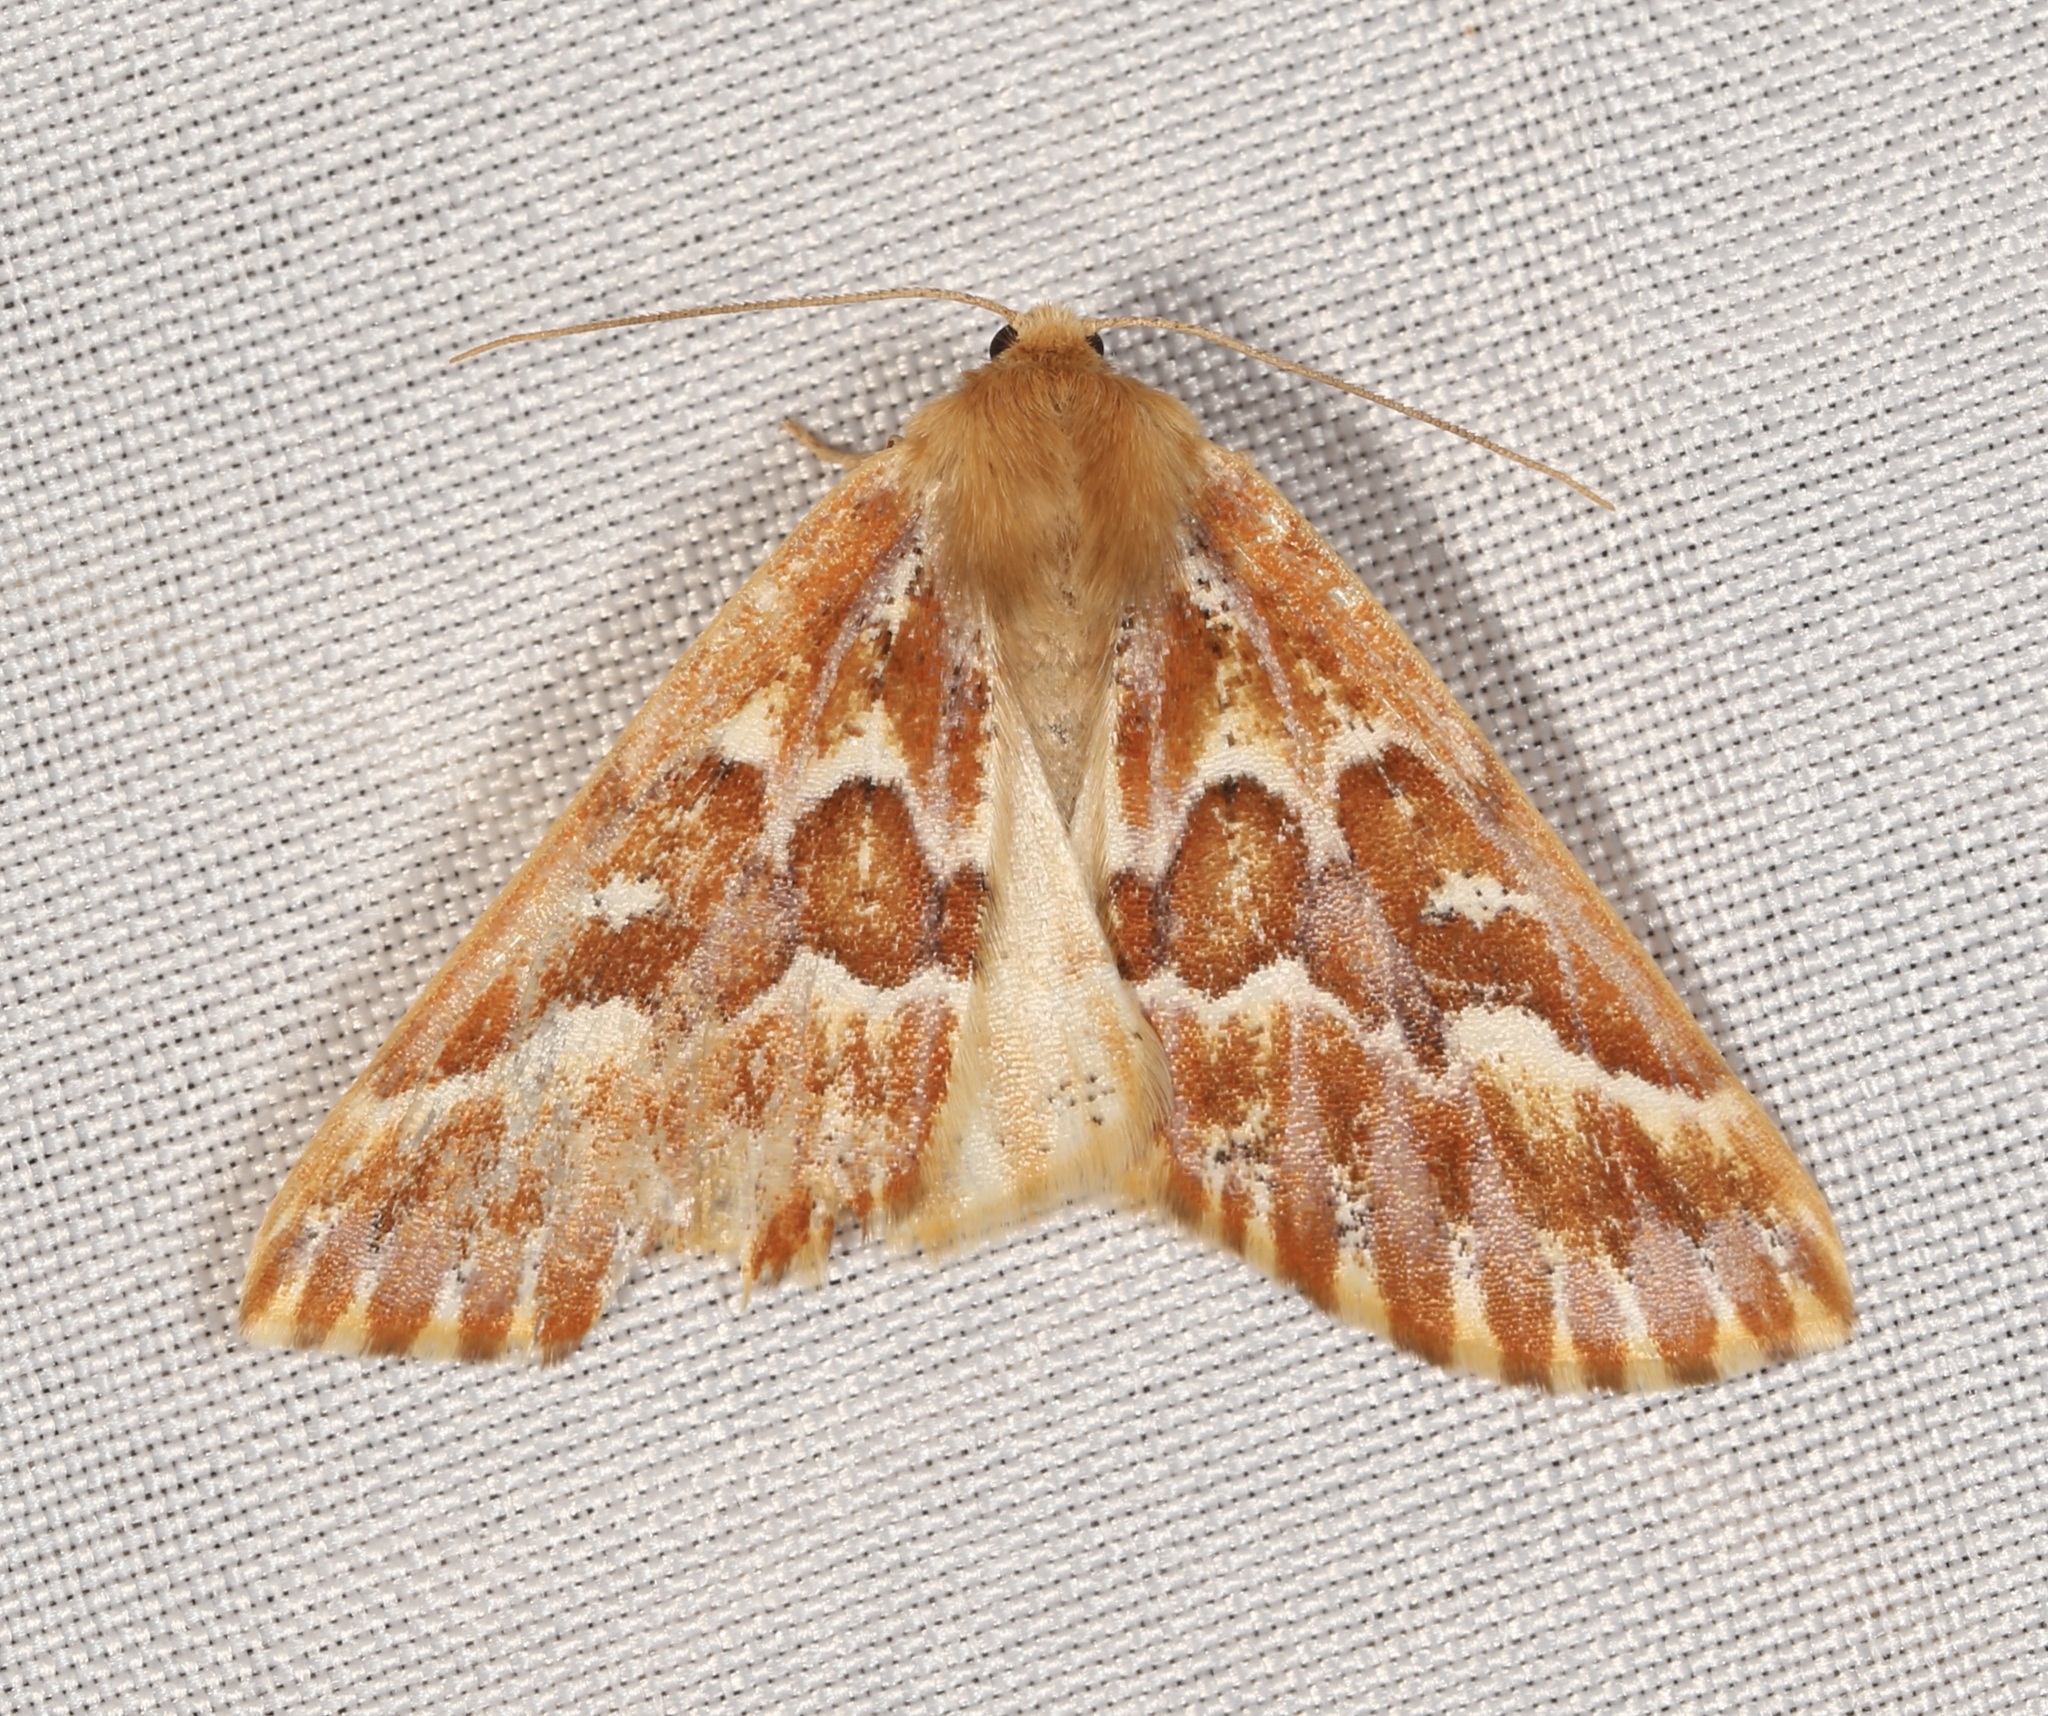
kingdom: Animalia
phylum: Arthropoda
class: Insecta
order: Lepidoptera
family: Geometridae
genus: Caripeta
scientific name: Caripeta aequaliaria
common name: Red girdle moth
